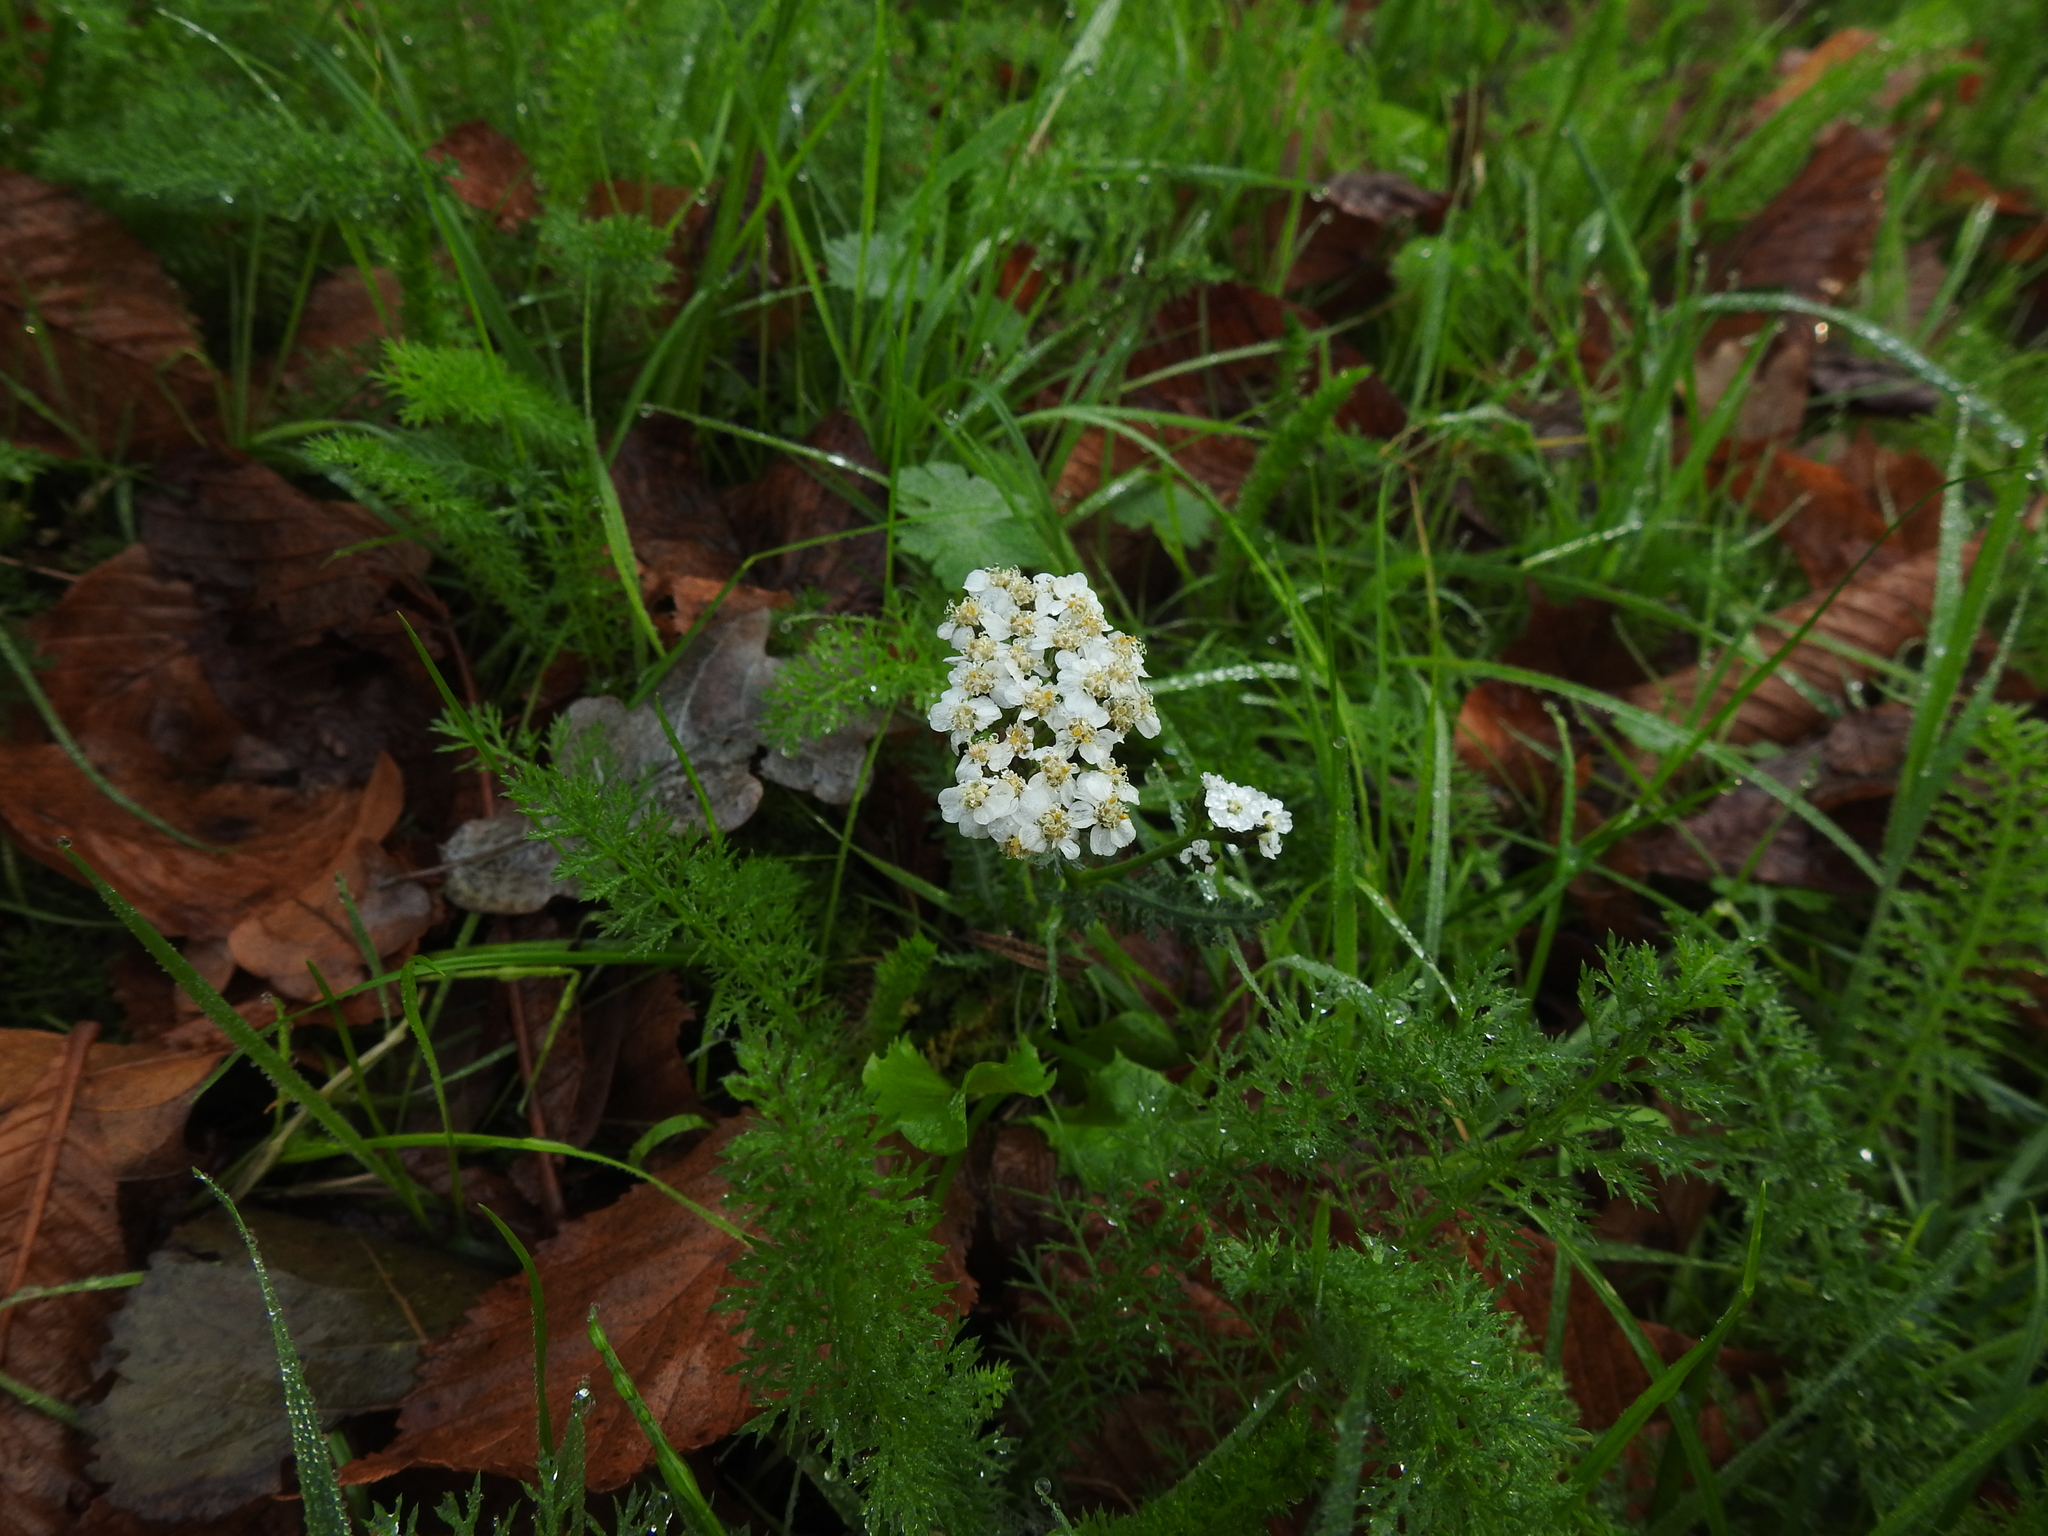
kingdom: Plantae
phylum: Tracheophyta
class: Magnoliopsida
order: Asterales
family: Asteraceae
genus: Achillea
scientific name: Achillea millefolium
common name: Yarrow
